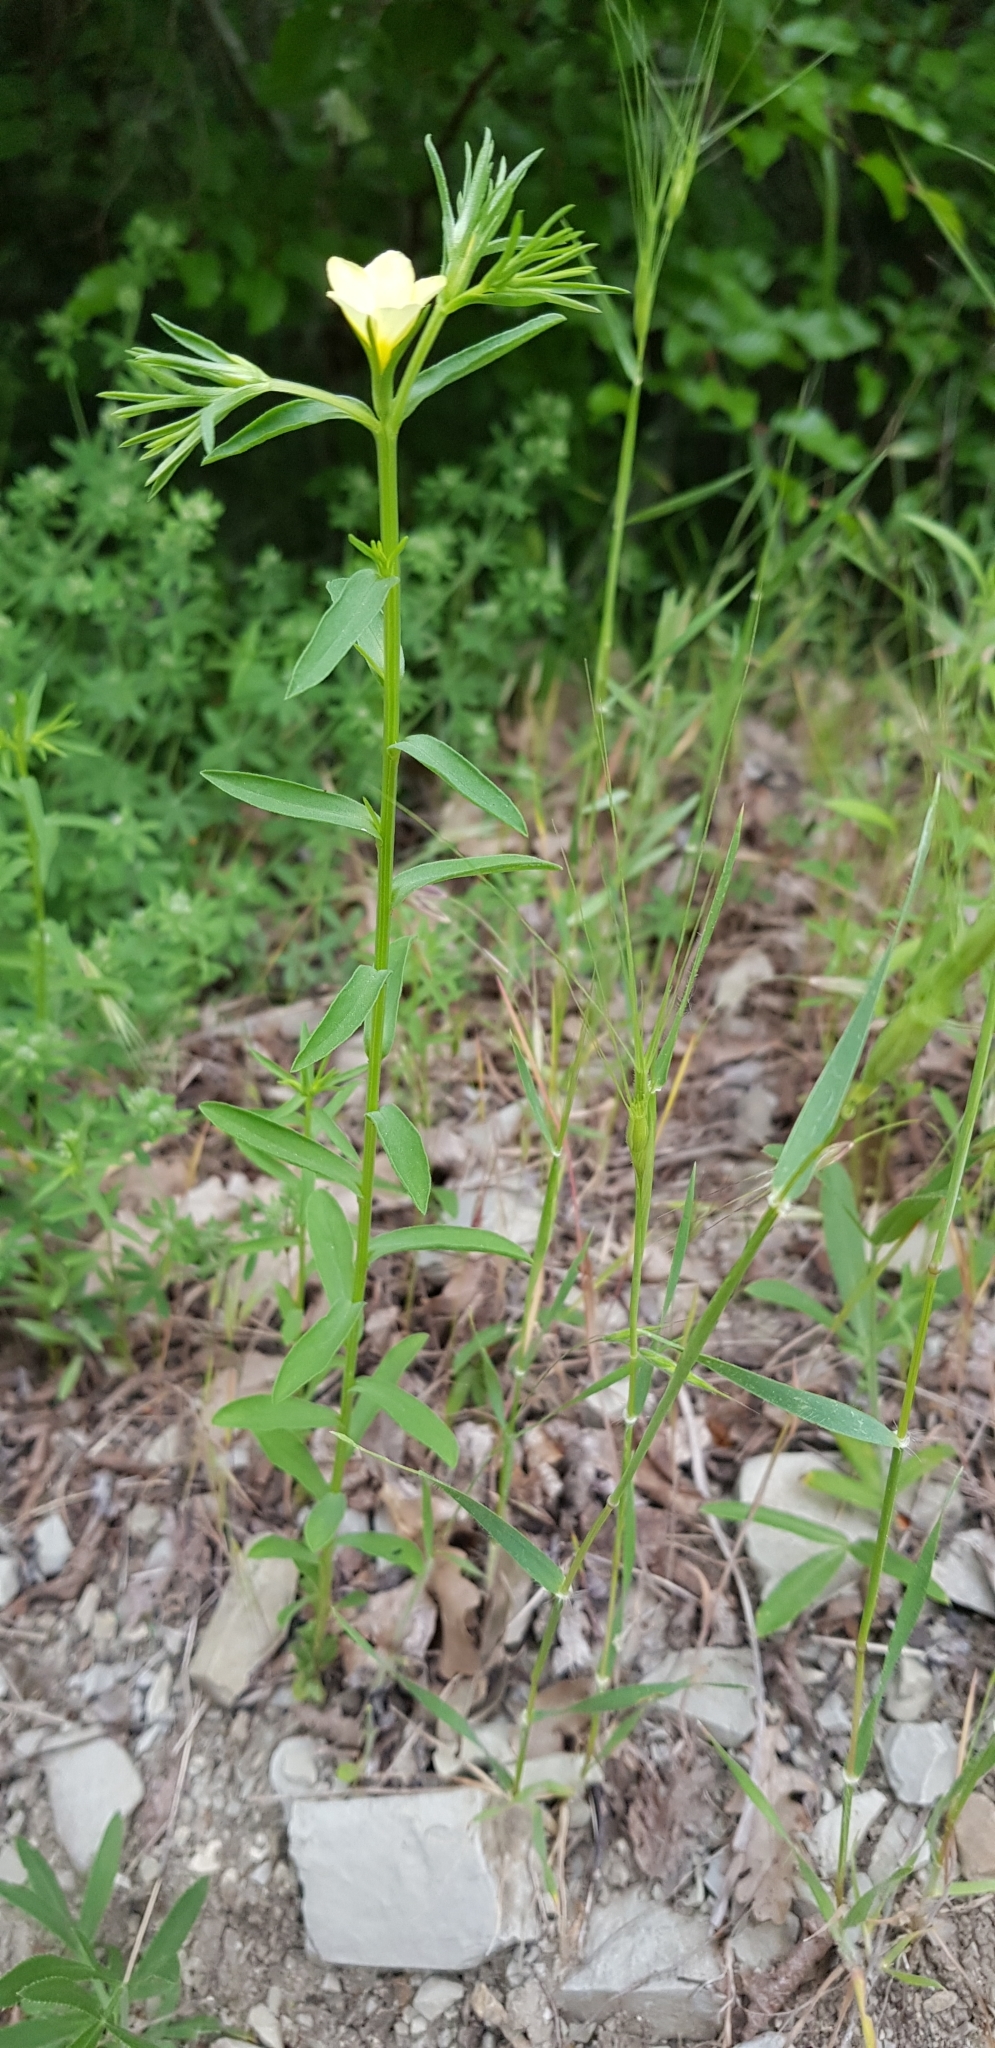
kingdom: Plantae
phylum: Tracheophyta
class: Magnoliopsida
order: Malpighiales
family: Linaceae
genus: Linum
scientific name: Linum nodiflorum
